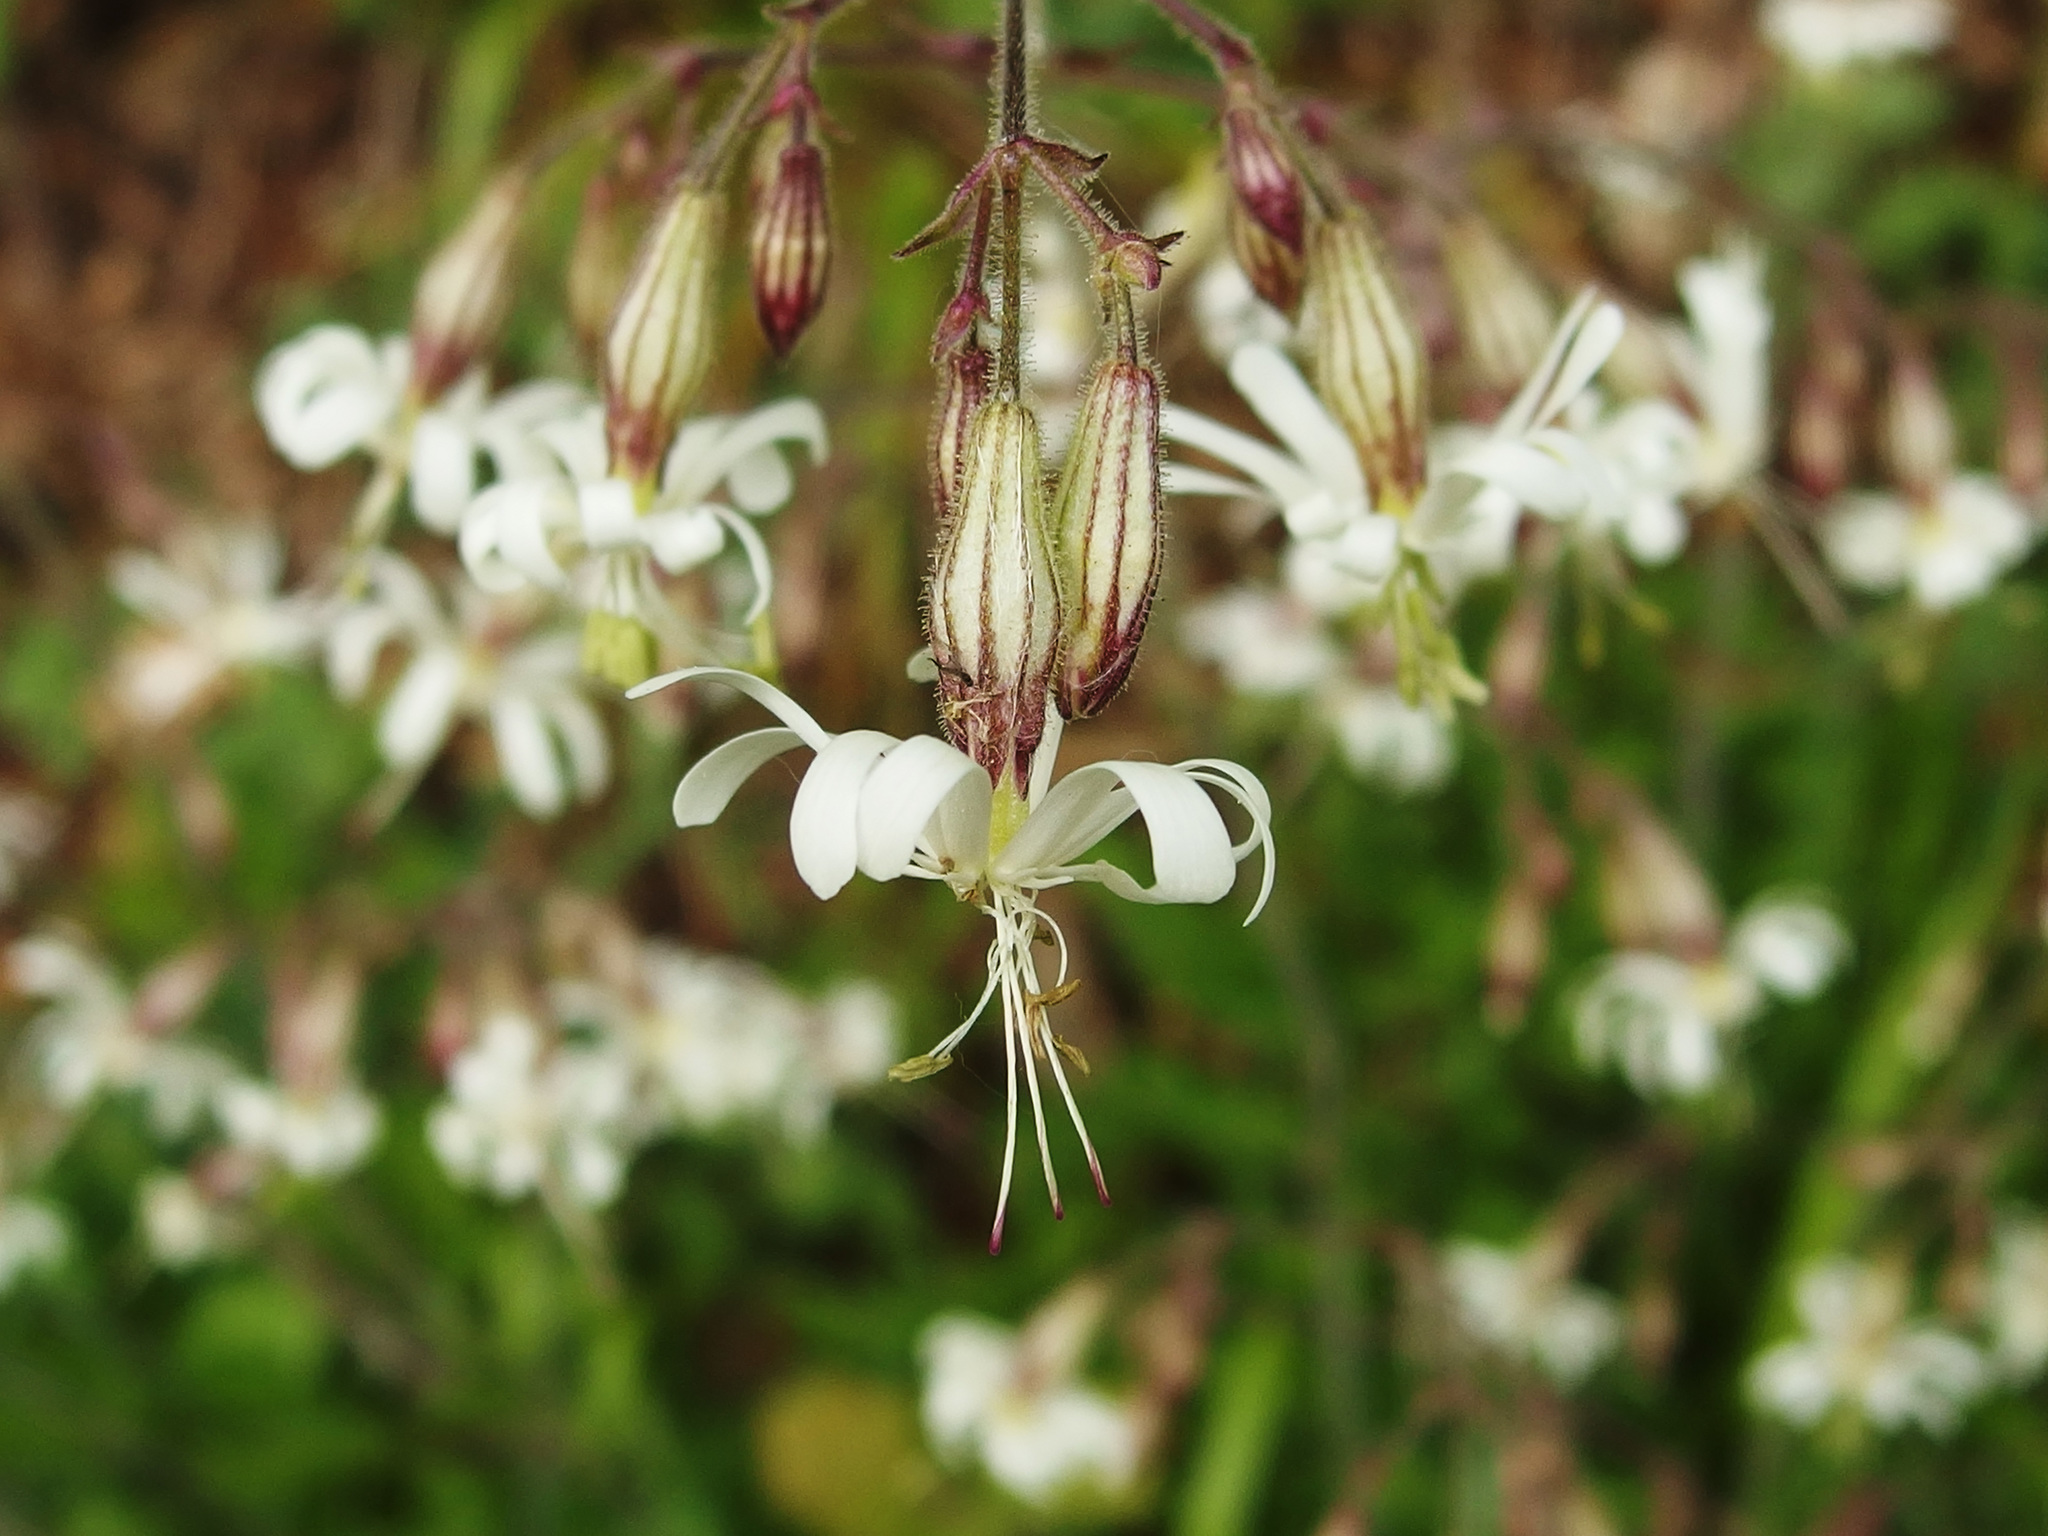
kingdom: Plantae
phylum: Tracheophyta
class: Magnoliopsida
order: Caryophyllales
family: Caryophyllaceae
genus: Silene
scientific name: Silene nutans
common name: Nottingham catchfly
